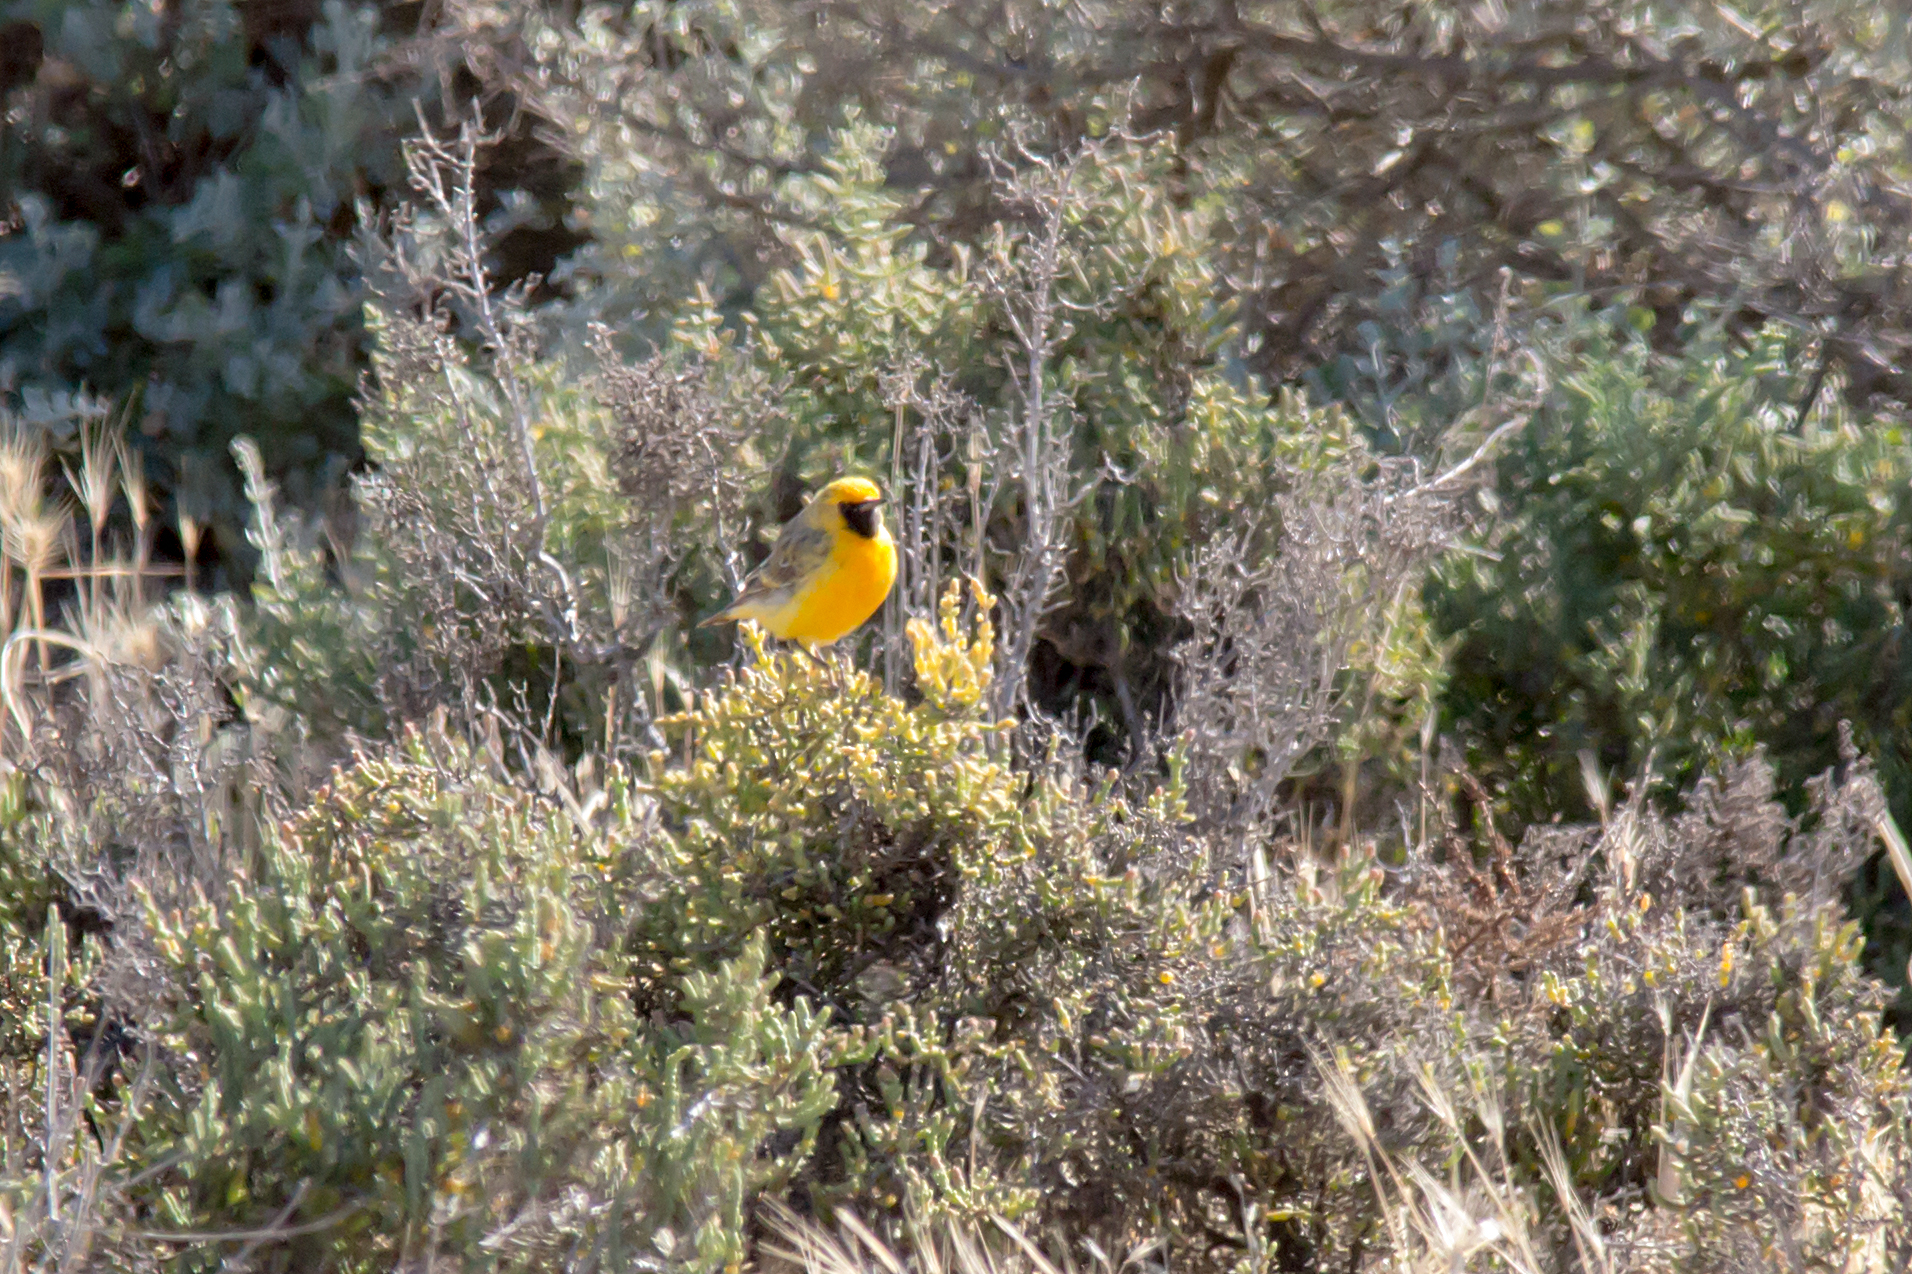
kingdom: Animalia
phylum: Chordata
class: Aves
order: Passeriformes
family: Meliphagidae
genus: Epthianura
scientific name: Epthianura aurifrons
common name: Orange chat
